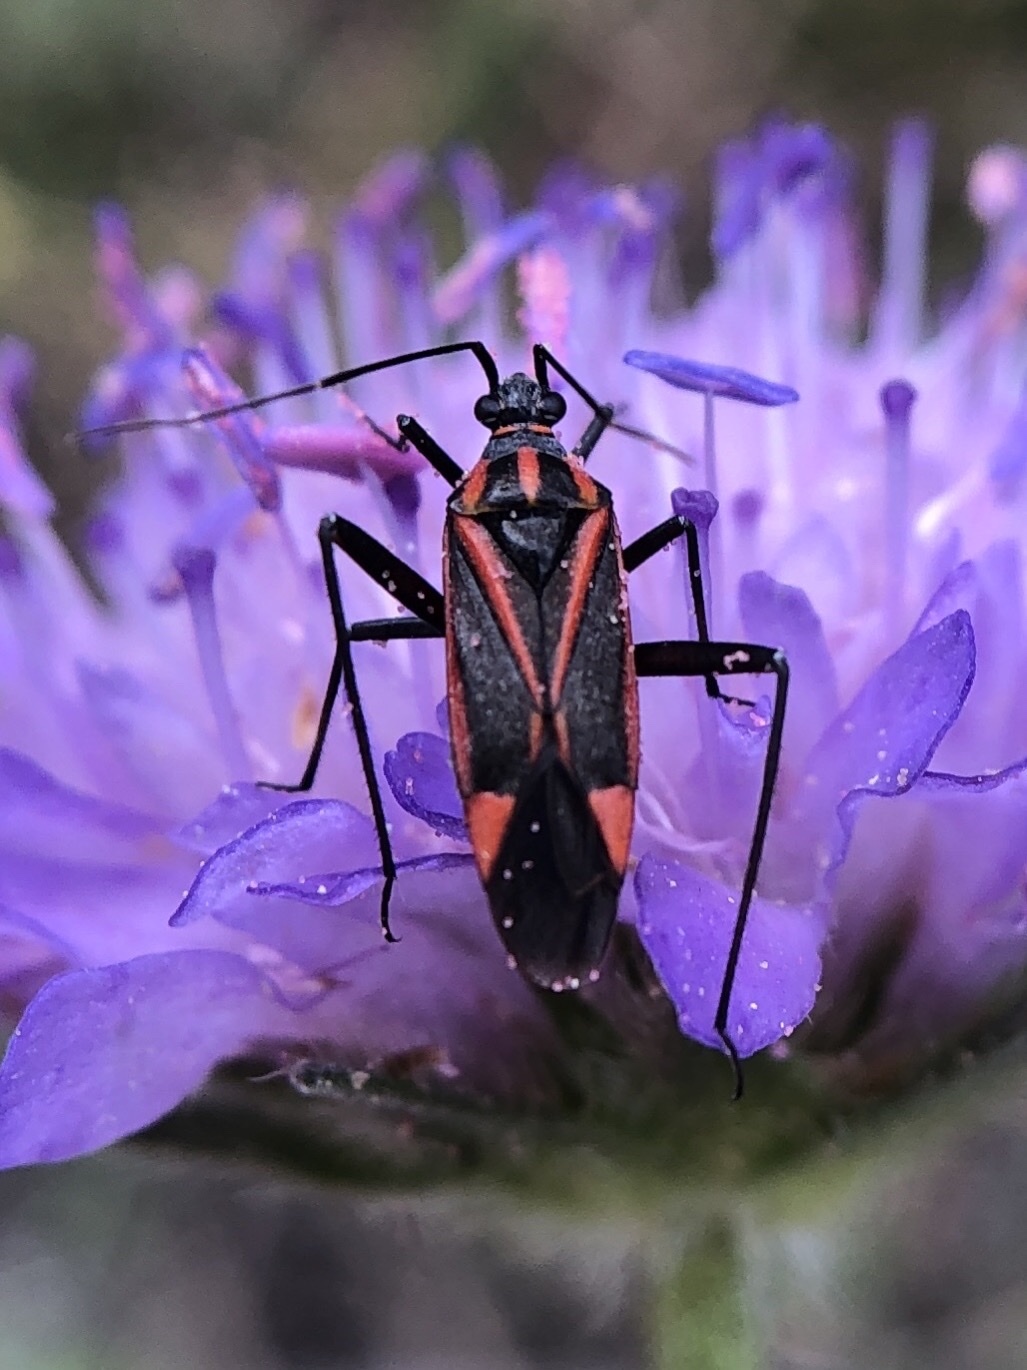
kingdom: Animalia
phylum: Arthropoda
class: Insecta
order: Hemiptera
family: Miridae
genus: Hadrodemus
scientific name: Hadrodemus m-flavum
